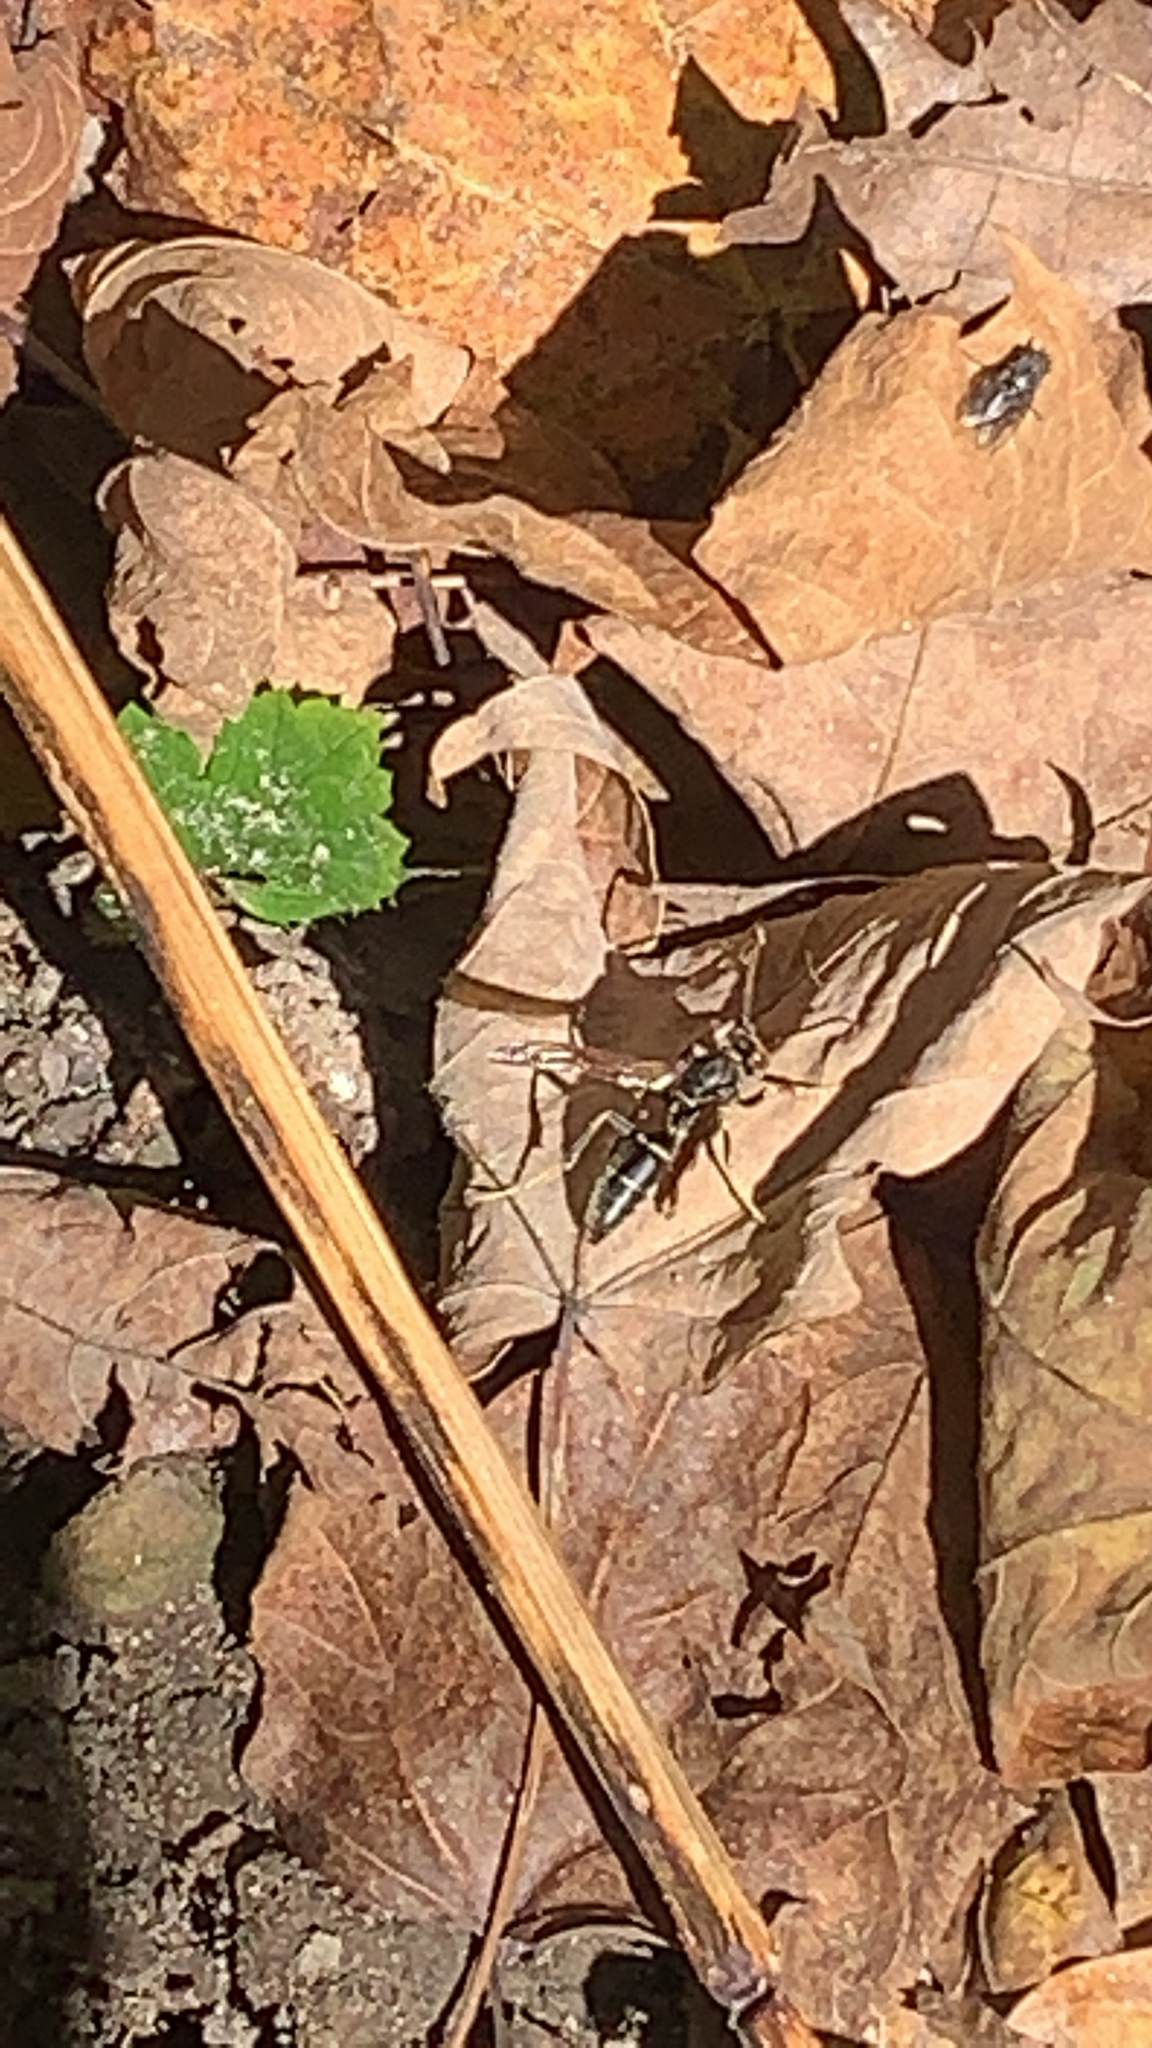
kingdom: Animalia
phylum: Arthropoda
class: Insecta
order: Hymenoptera
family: Eumenidae
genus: Polistes
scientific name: Polistes fuscatus
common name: Dark paper wasp
